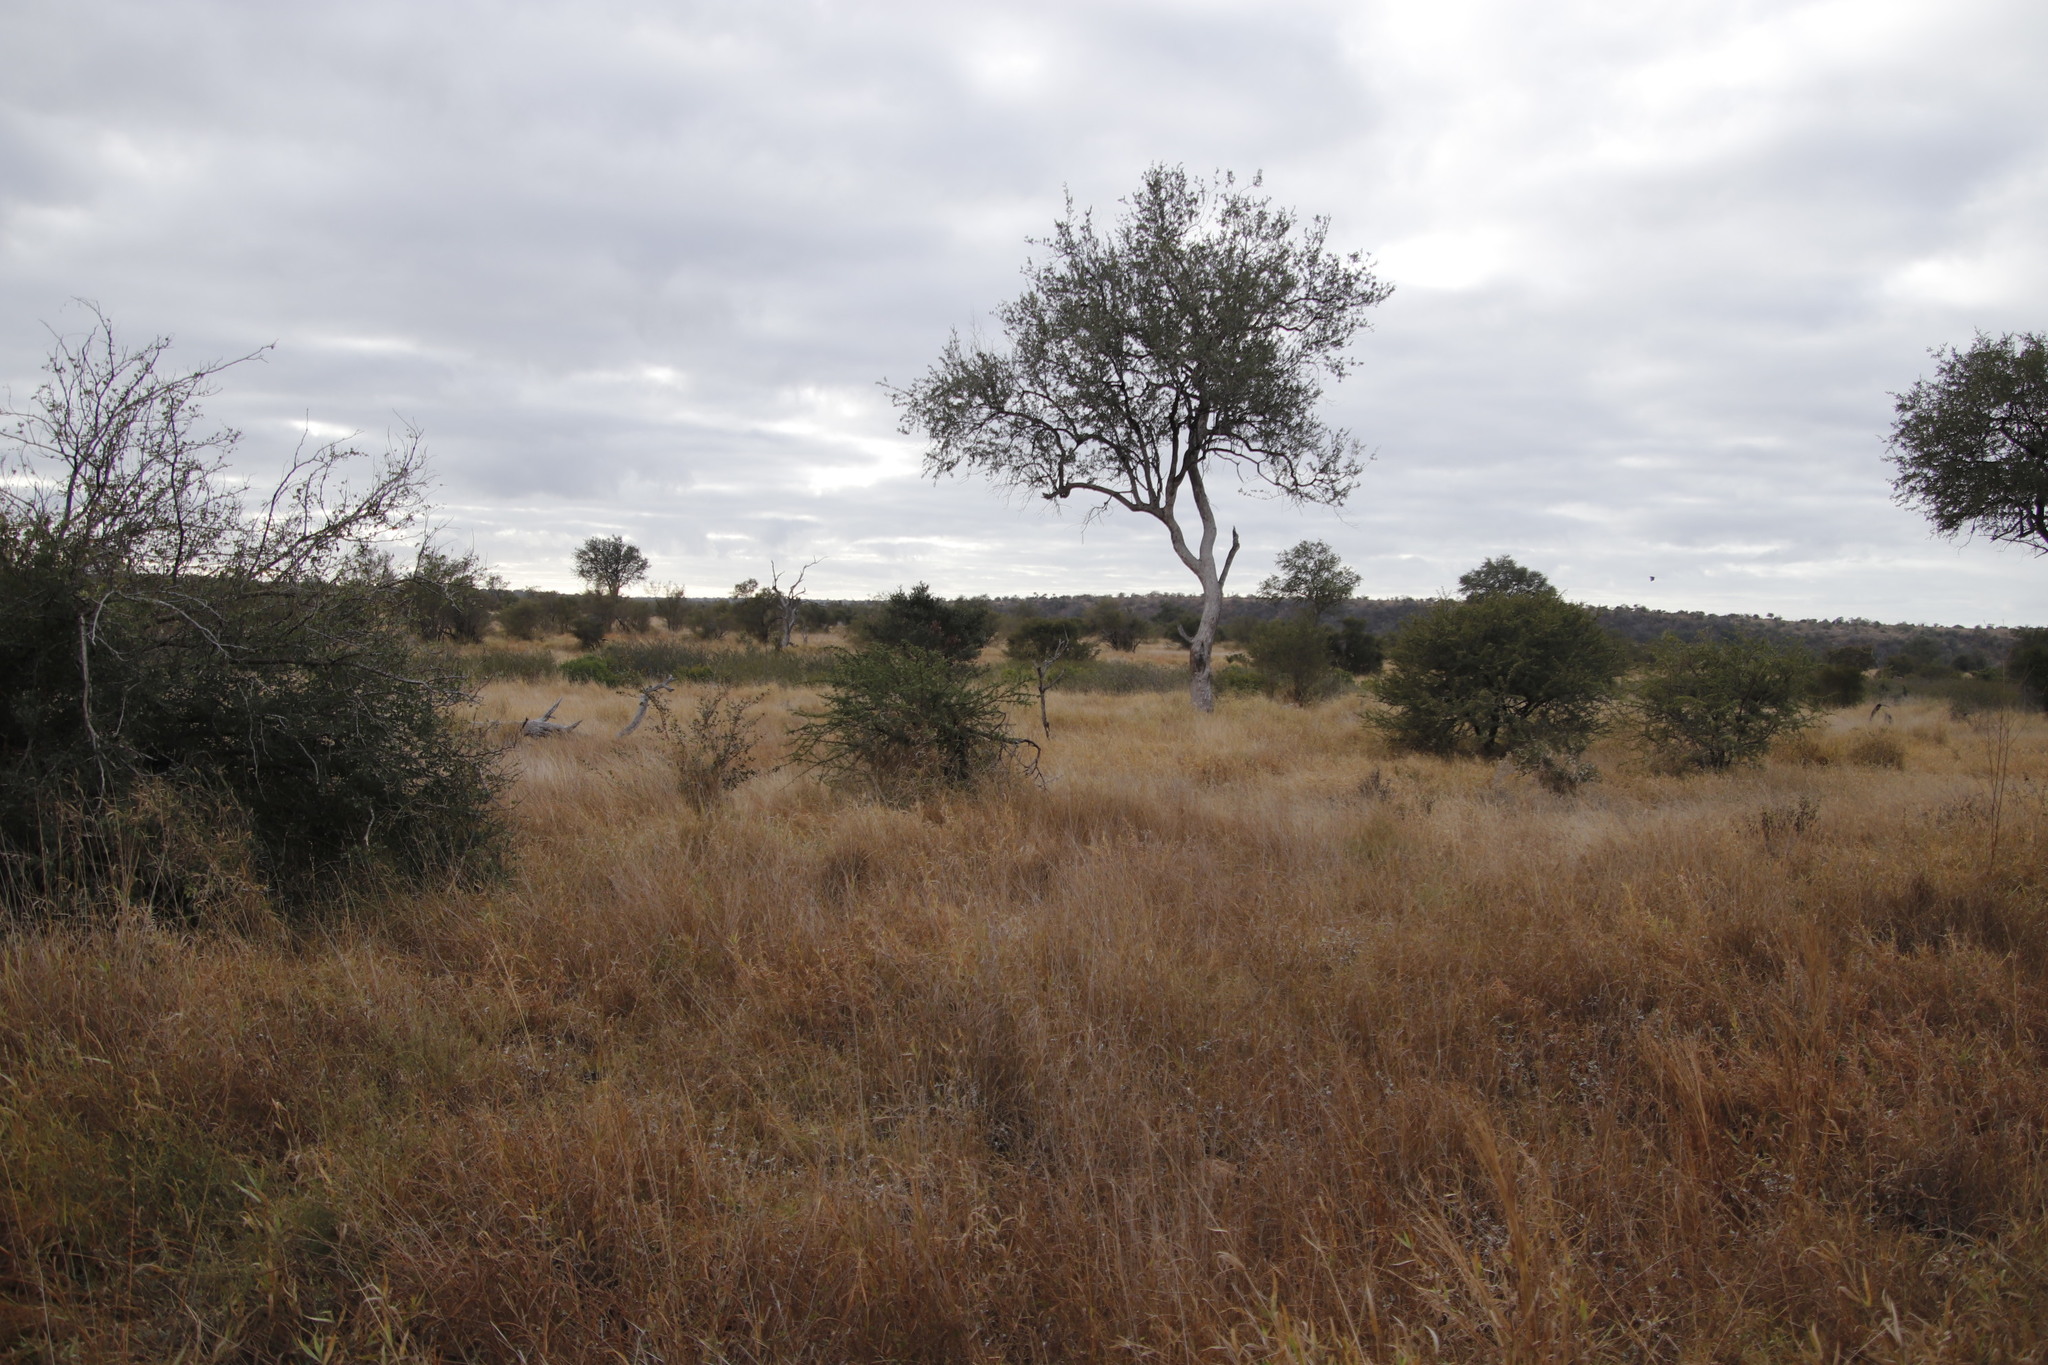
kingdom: Plantae
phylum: Tracheophyta
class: Magnoliopsida
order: Myrtales
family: Combretaceae
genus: Combretum
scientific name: Combretum imberbe
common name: Leadwood
